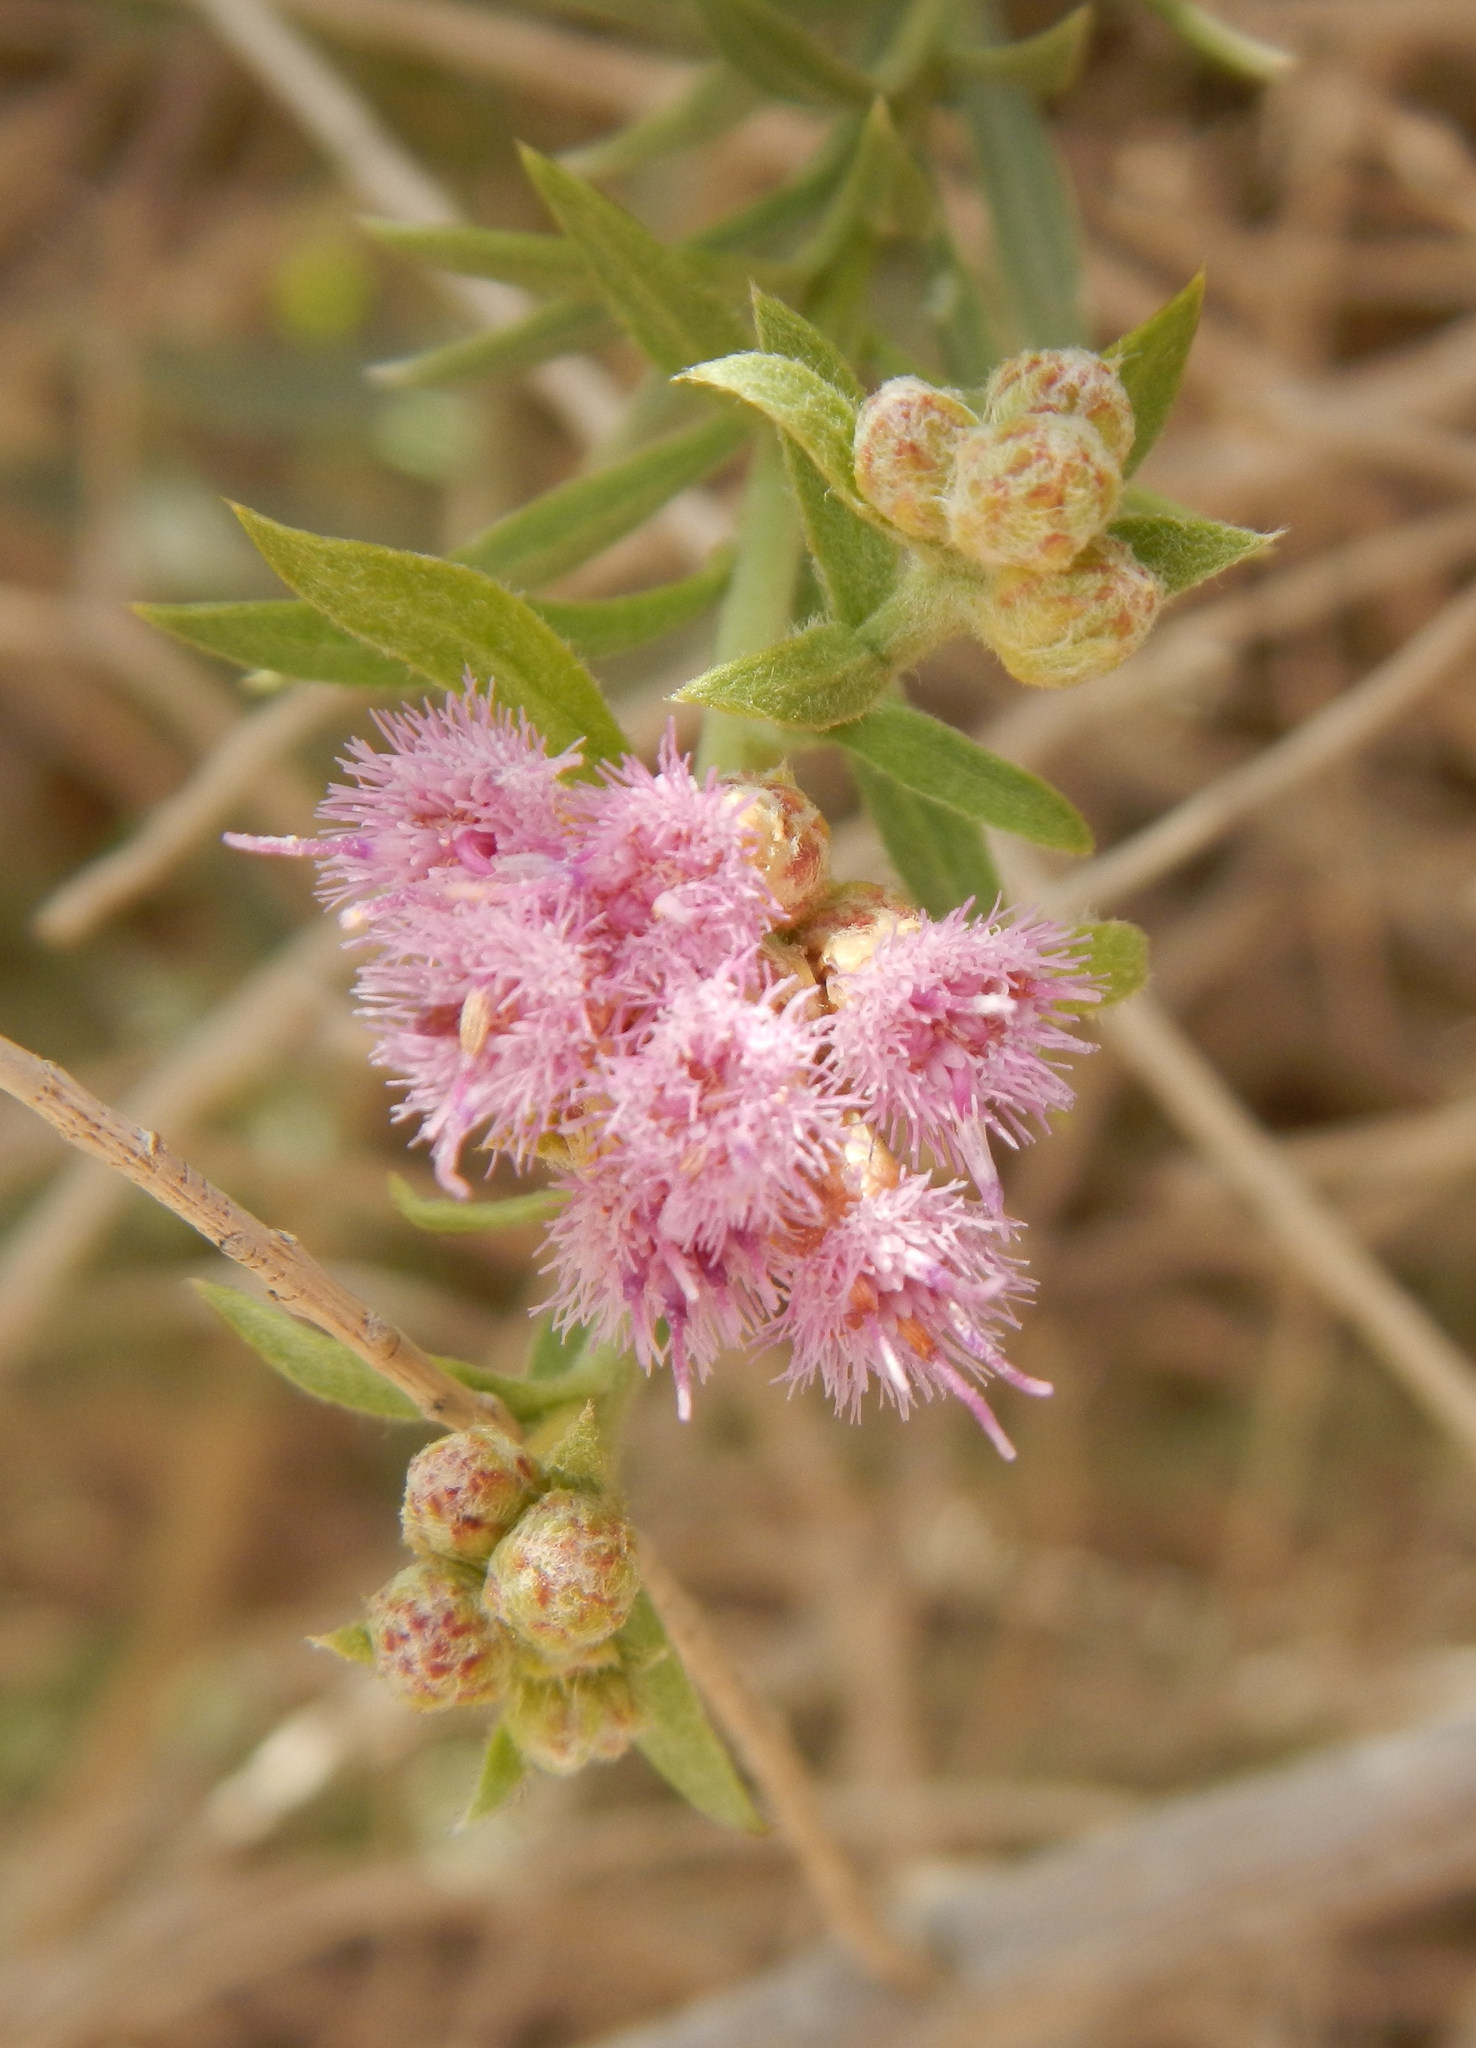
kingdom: Plantae
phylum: Tracheophyta
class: Magnoliopsida
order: Asterales
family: Asteraceae
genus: Pluchea
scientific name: Pluchea sericea
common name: Arrow-weed
